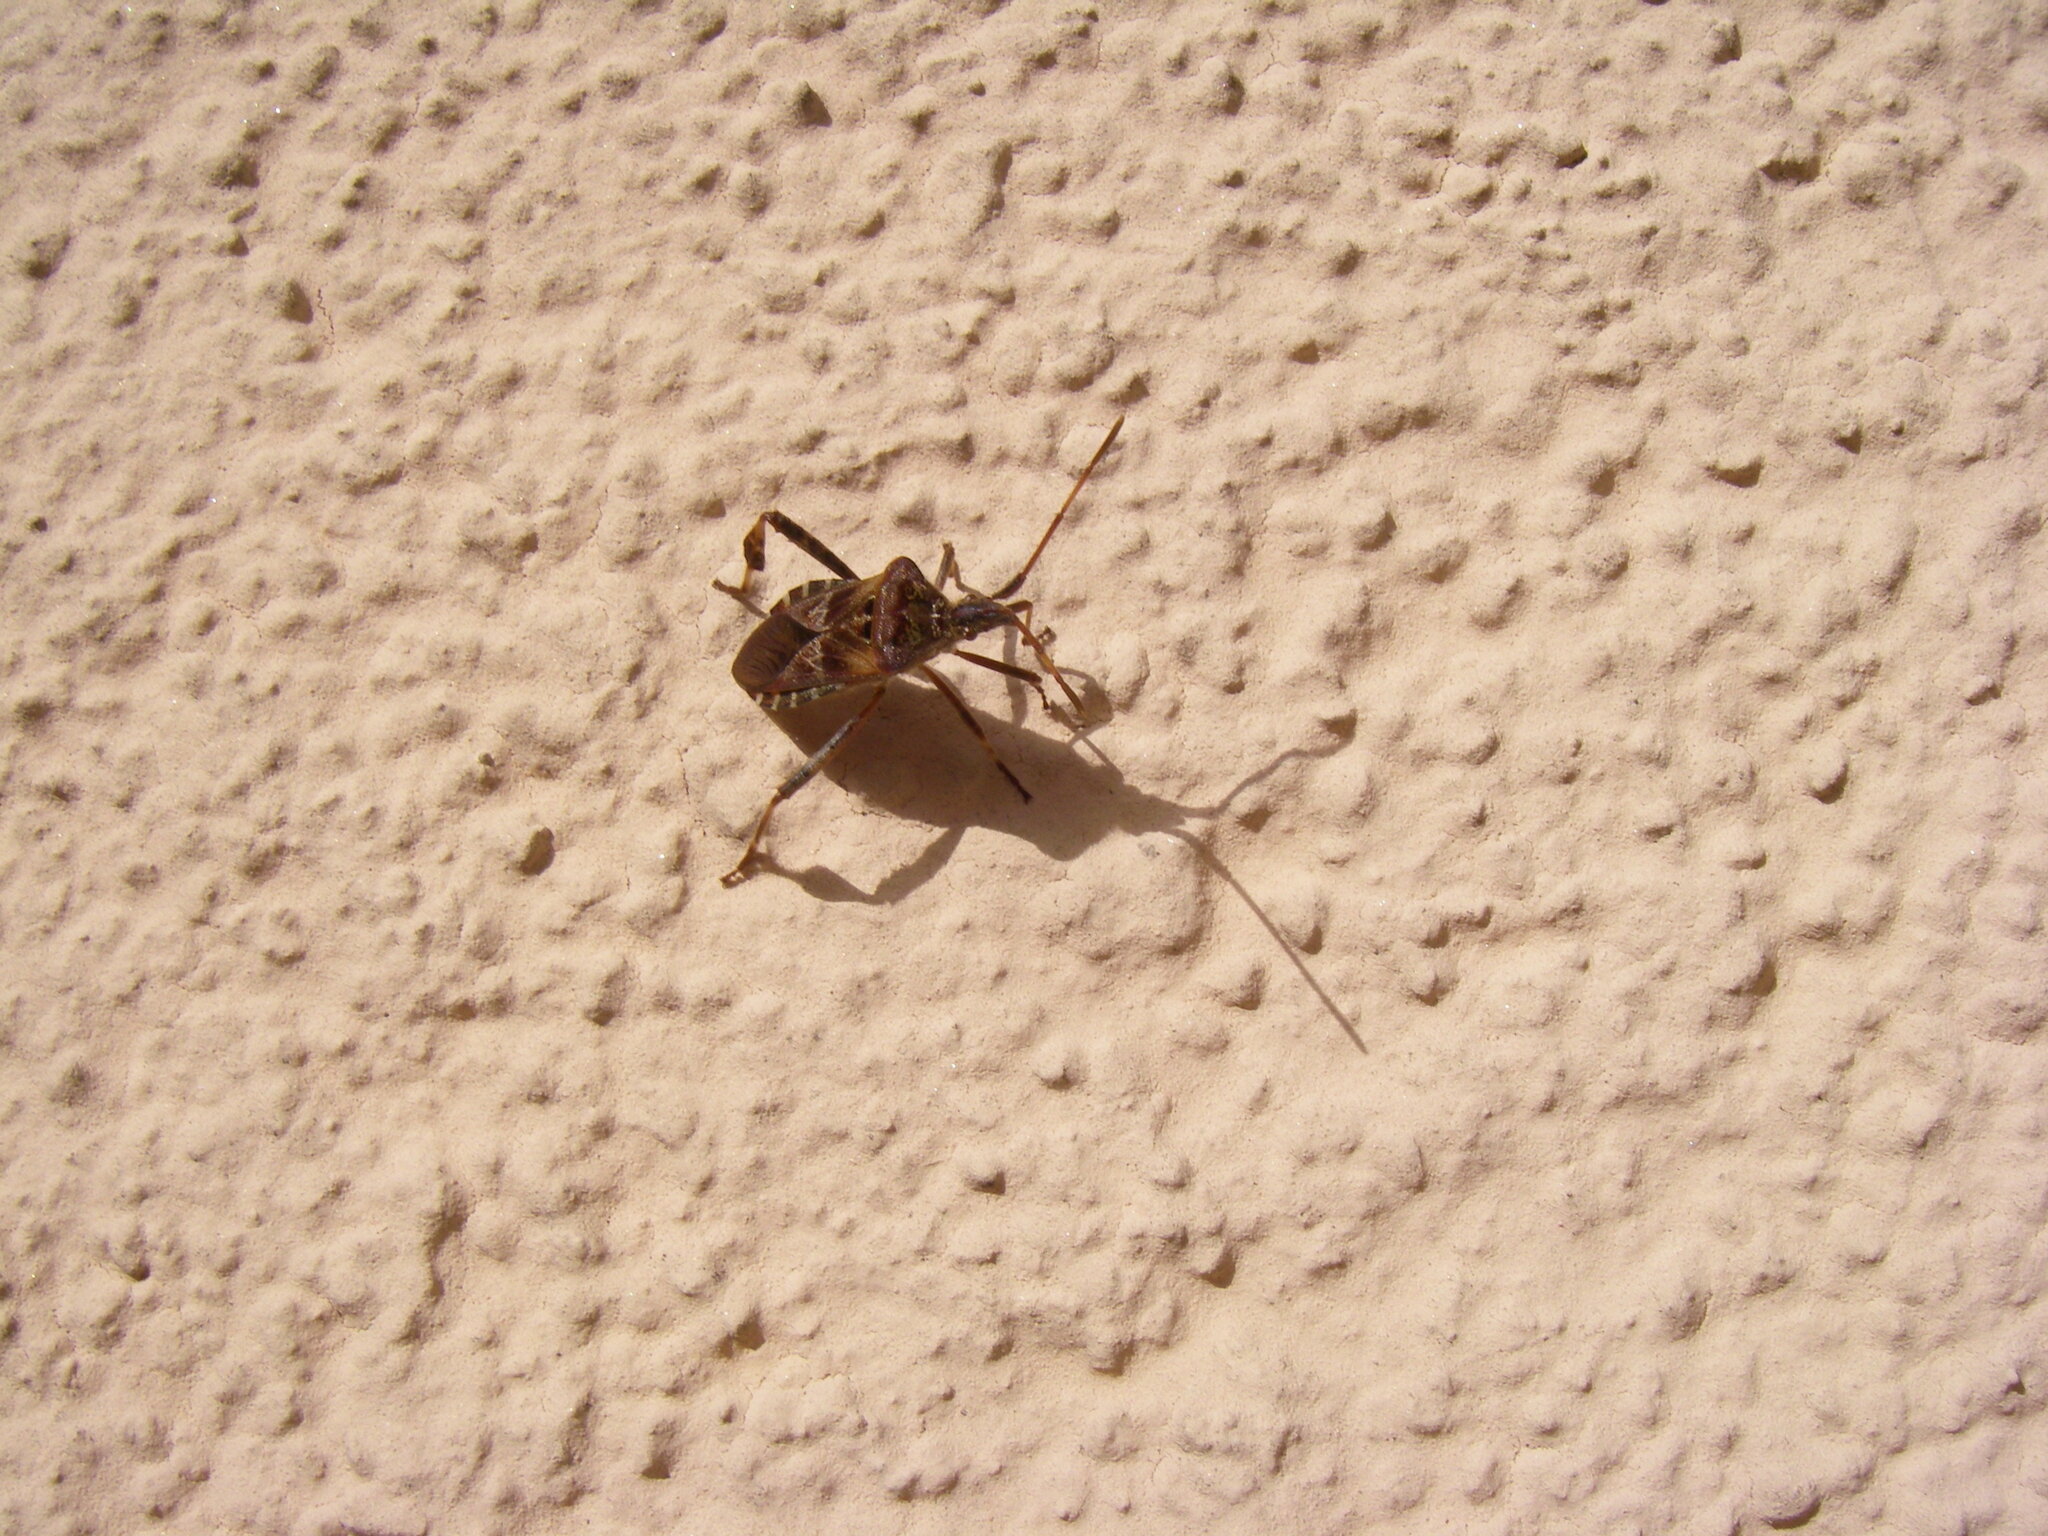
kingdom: Animalia
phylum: Arthropoda
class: Insecta
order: Hemiptera
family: Coreidae
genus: Leptoglossus
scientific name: Leptoglossus occidentalis
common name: Western conifer-seed bug
